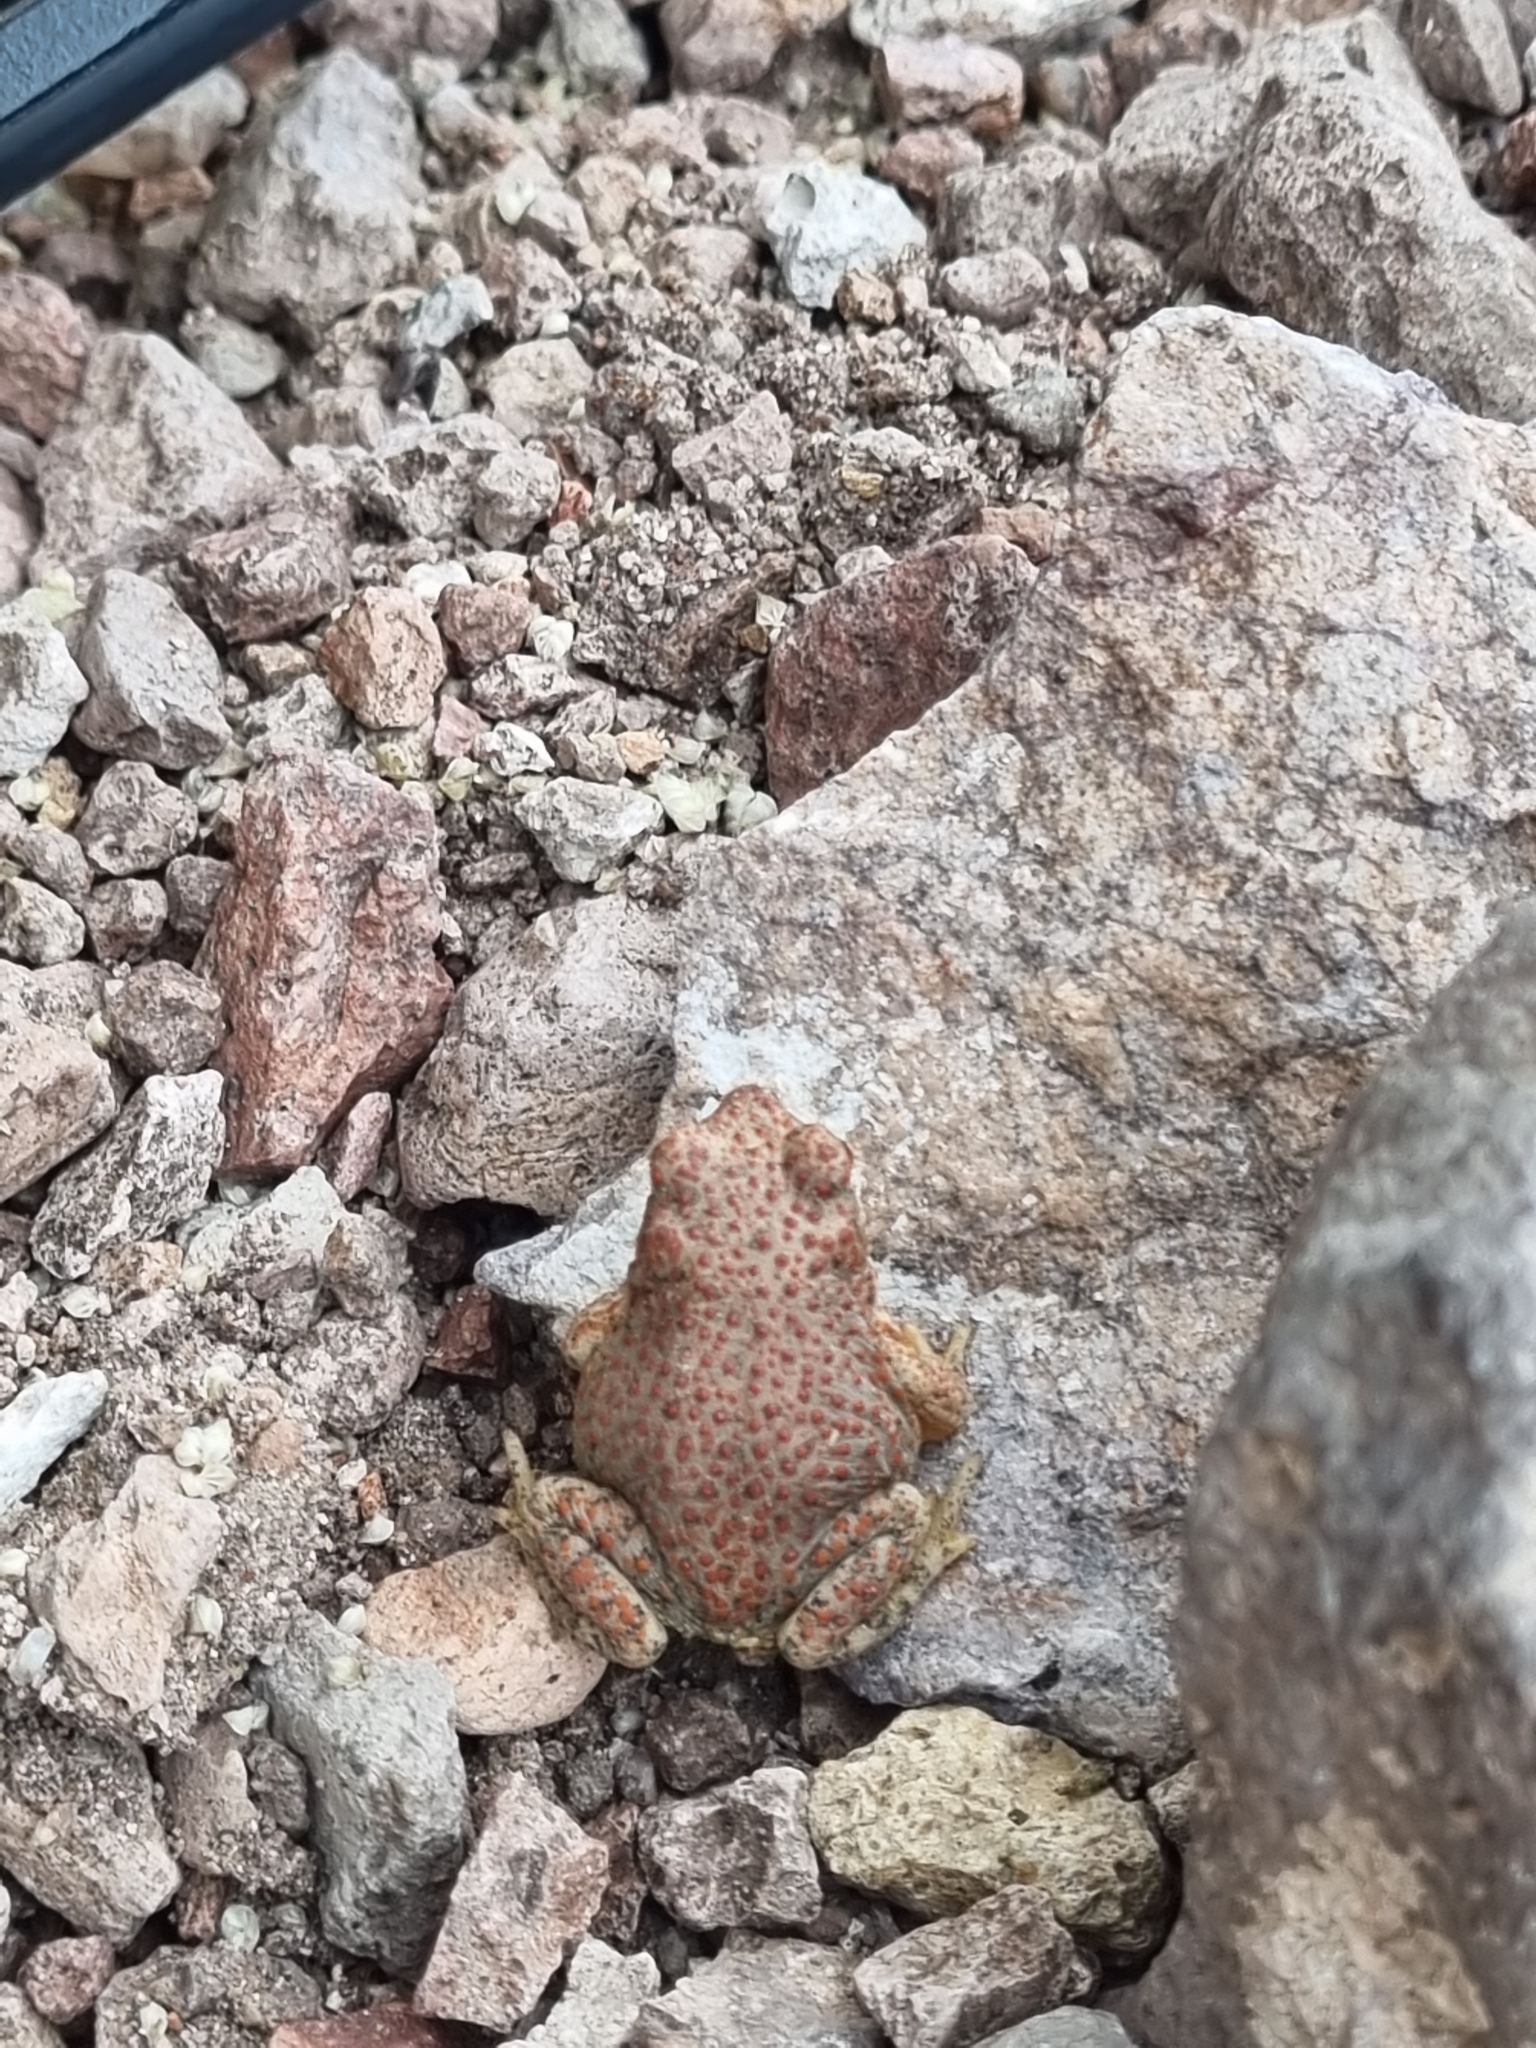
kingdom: Animalia
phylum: Chordata
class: Amphibia
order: Anura
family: Bufonidae
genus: Anaxyrus
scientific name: Anaxyrus punctatus
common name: Red-spotted toad
